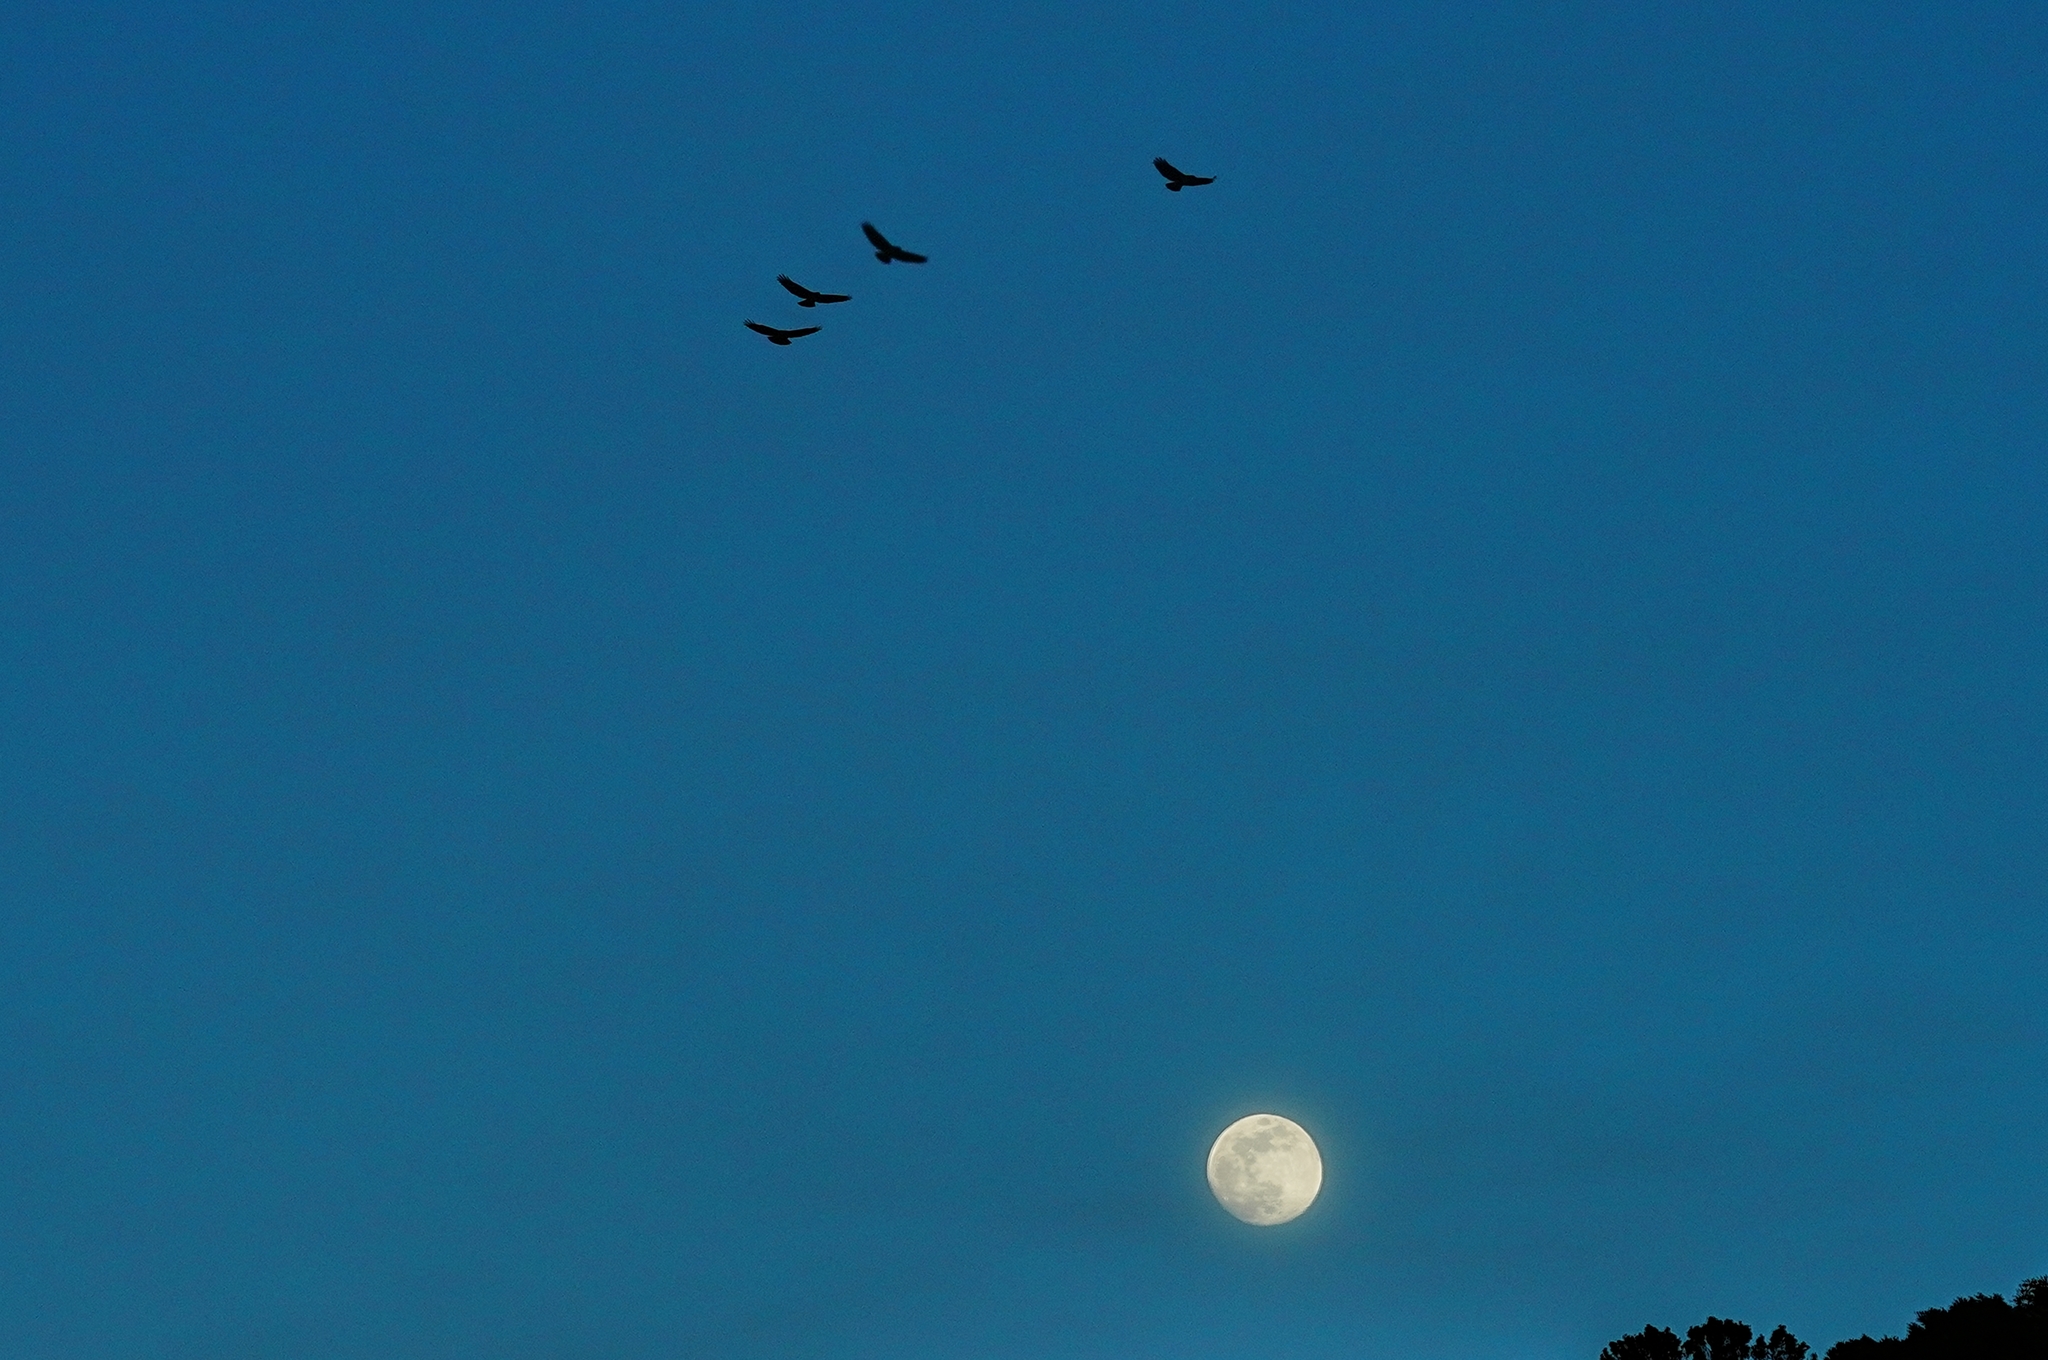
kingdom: Animalia
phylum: Chordata
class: Aves
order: Accipitriformes
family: Accipitridae
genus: Buteo
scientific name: Buteo jamaicensis
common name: Red-tailed hawk
